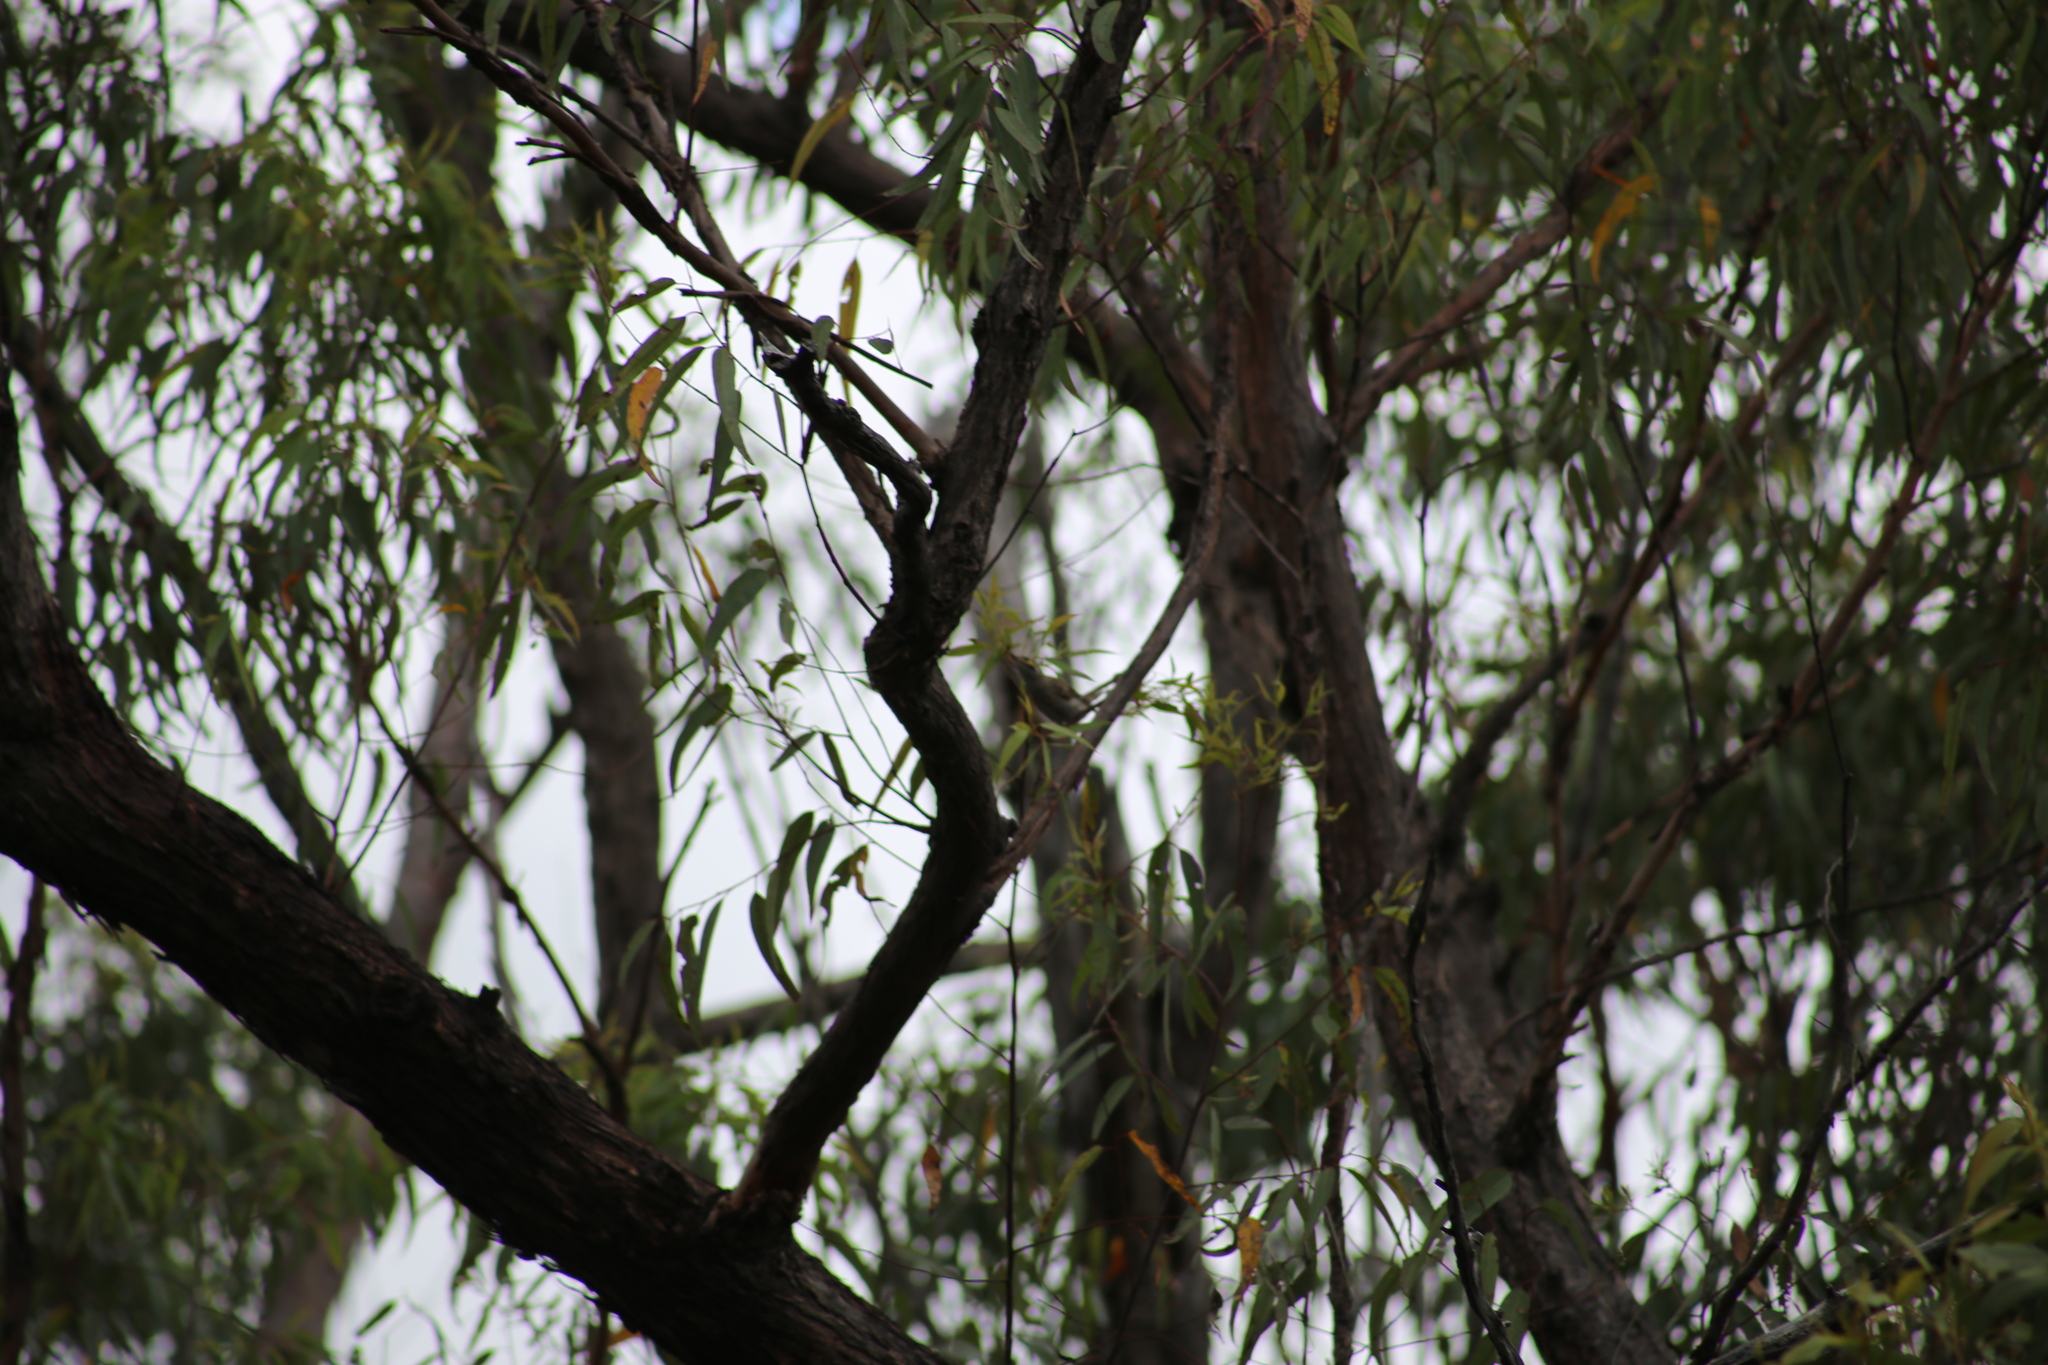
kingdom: Animalia
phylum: Chordata
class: Aves
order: Passeriformes
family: Meliphagidae
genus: Caligavis
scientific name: Caligavis chrysops
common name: Yellow-faced honeyeater
